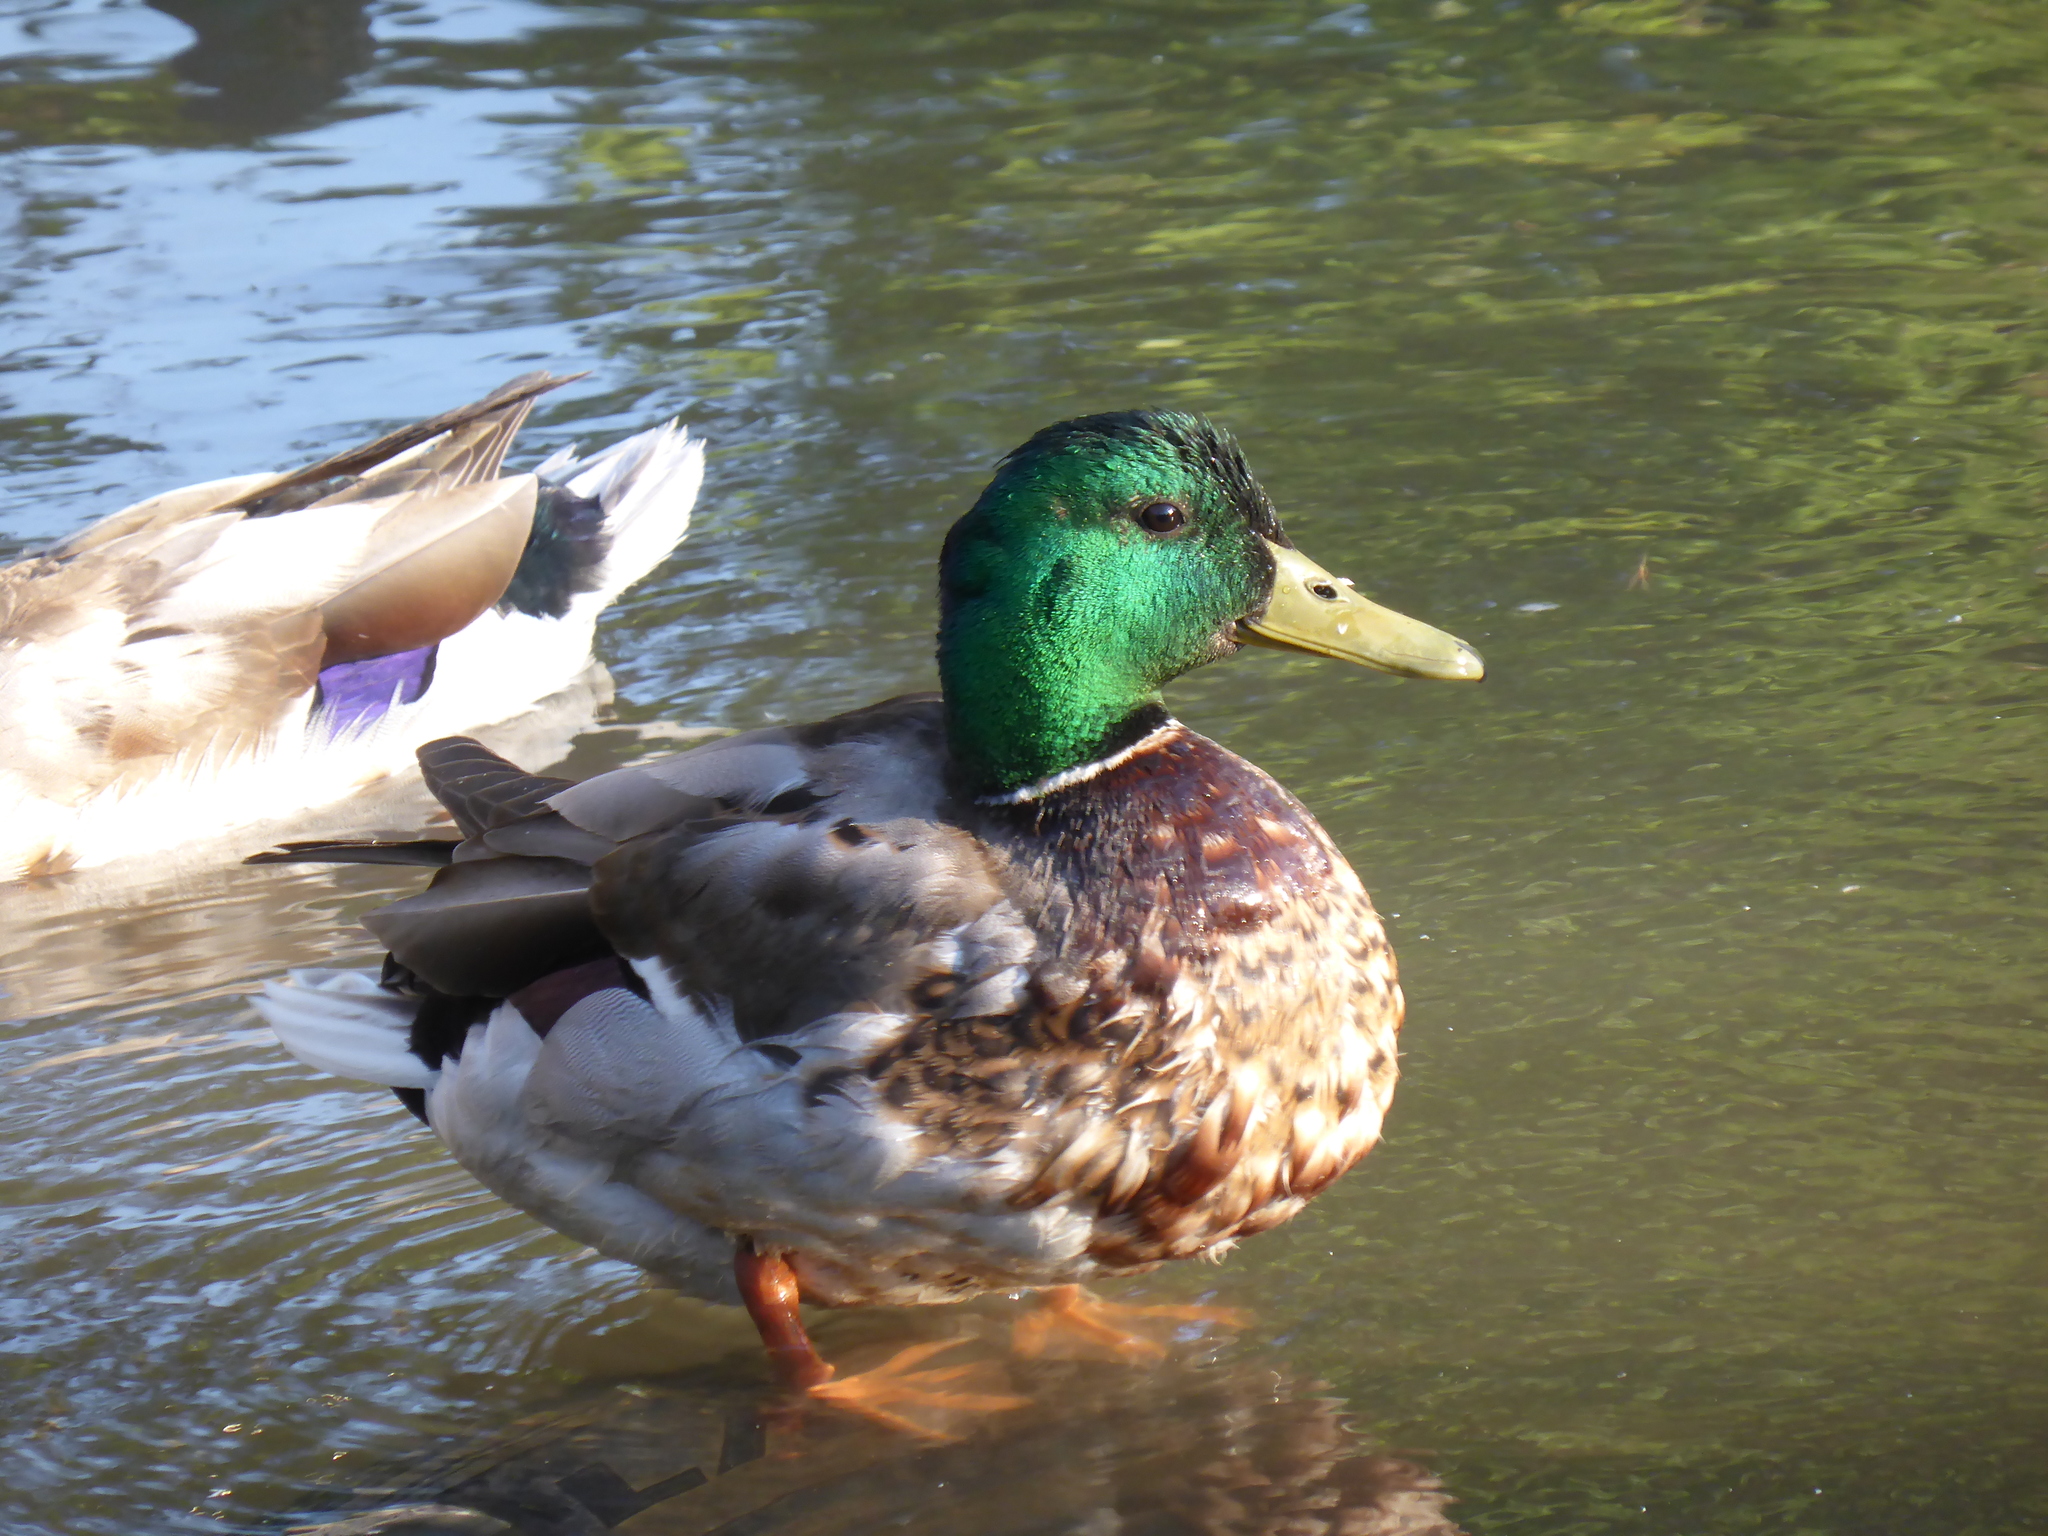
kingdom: Animalia
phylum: Chordata
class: Aves
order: Anseriformes
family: Anatidae
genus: Anas
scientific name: Anas platyrhynchos
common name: Mallard
